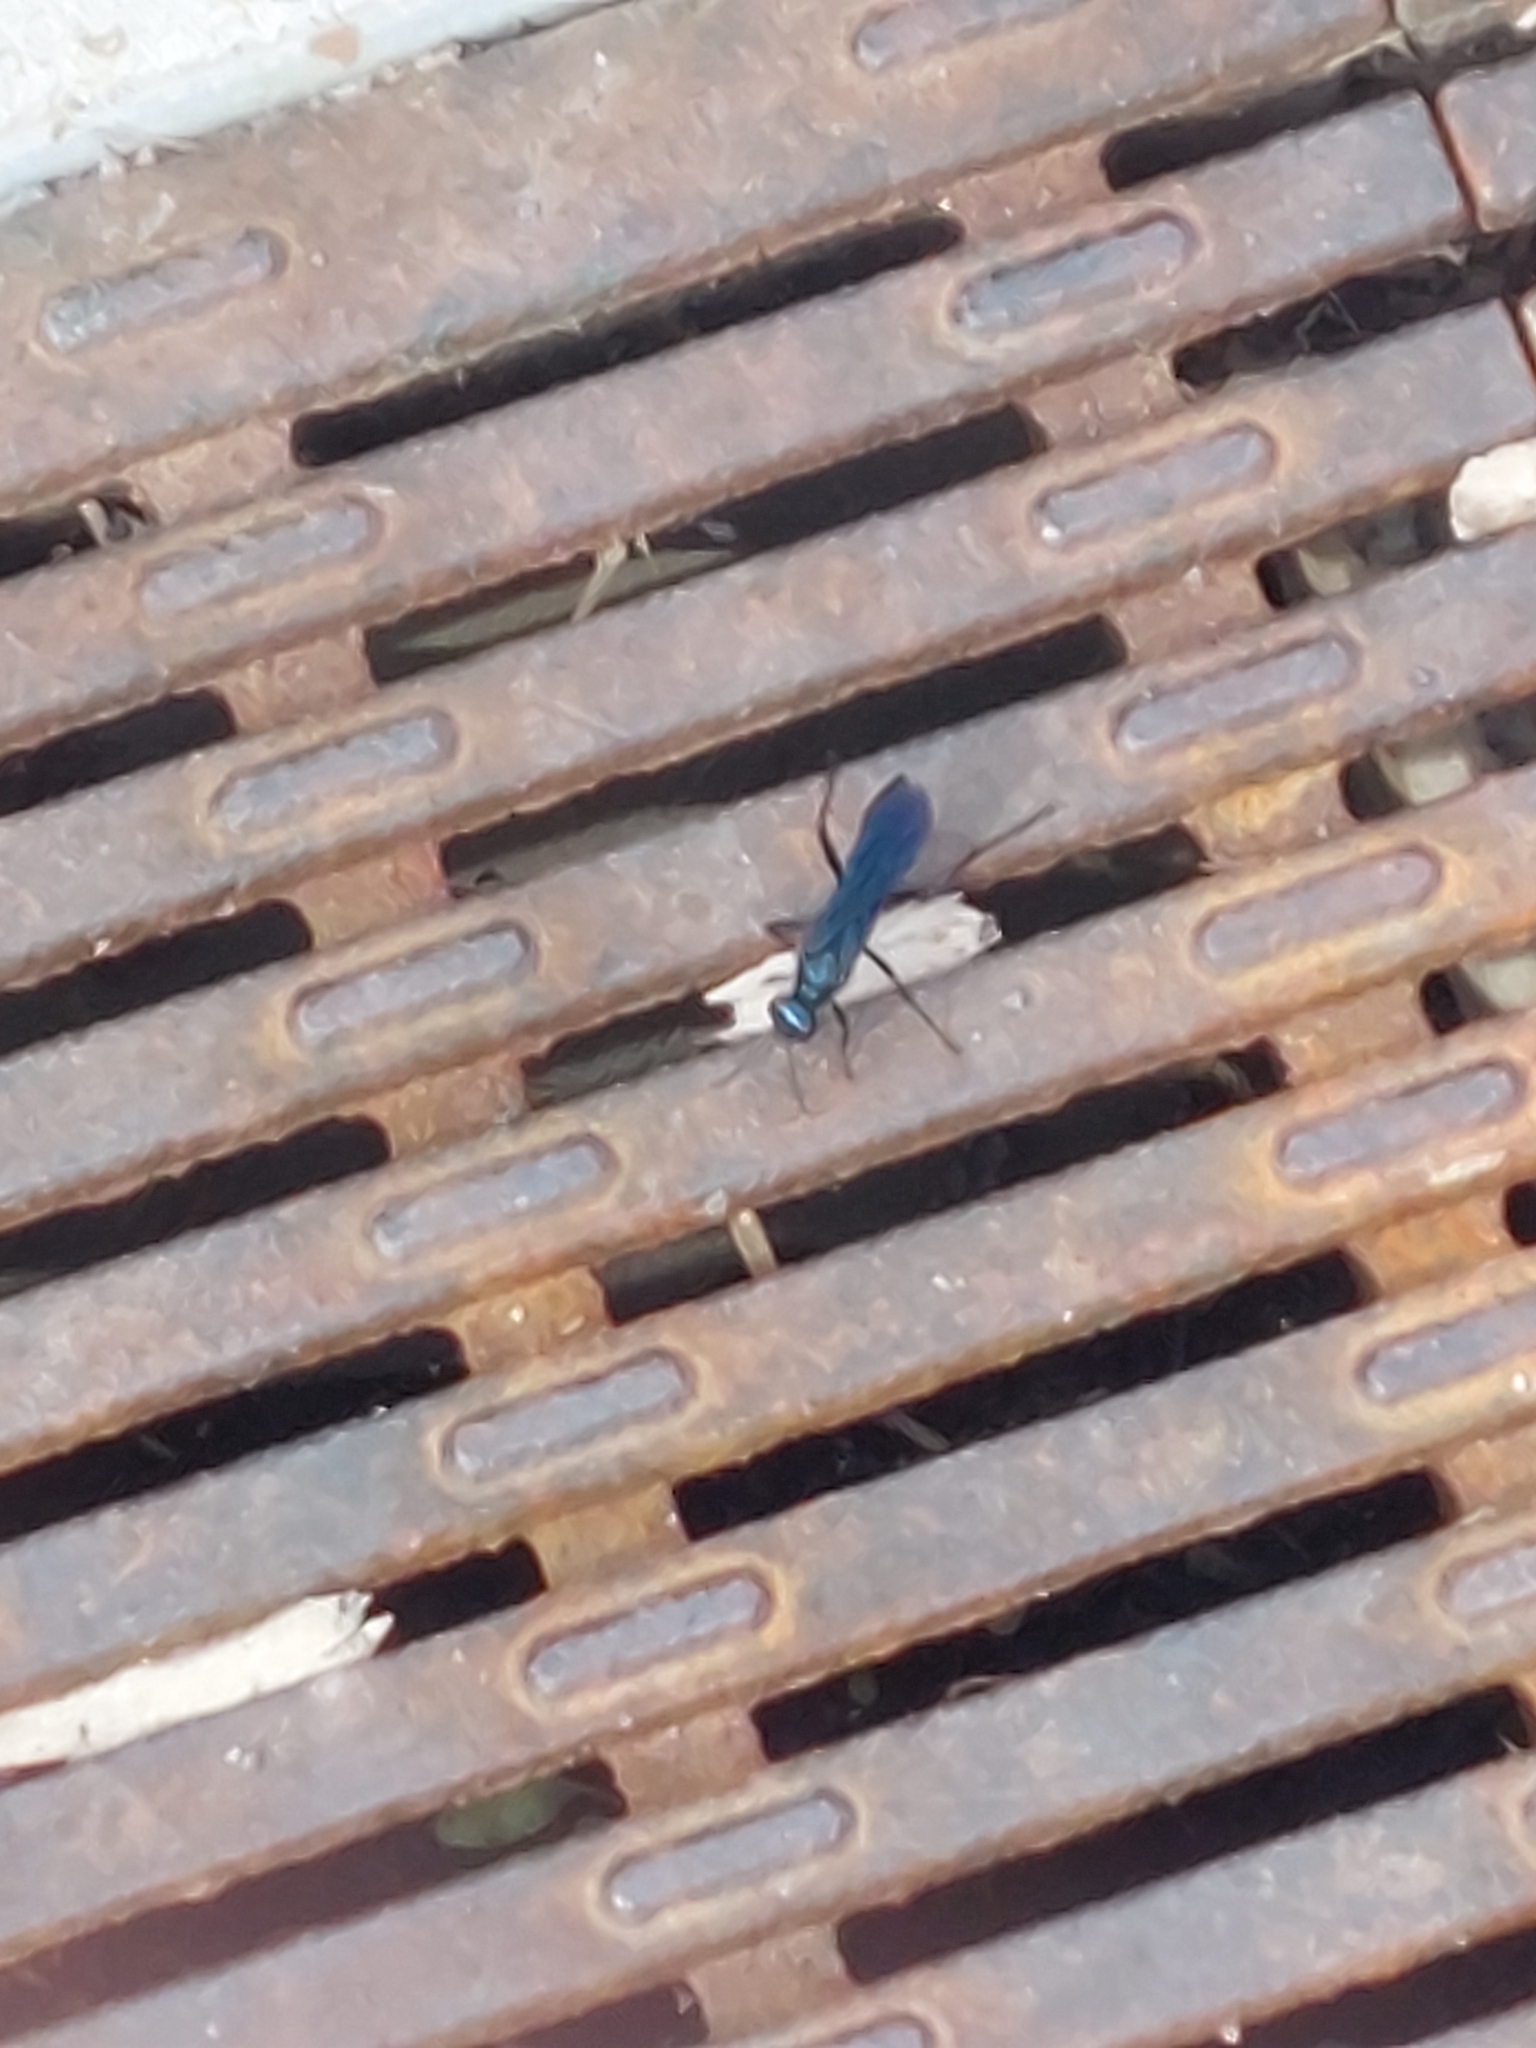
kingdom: Animalia
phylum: Arthropoda
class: Insecta
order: Hymenoptera
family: Sphecidae
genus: Chalybion
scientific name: Chalybion californicum
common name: Mud dauber
